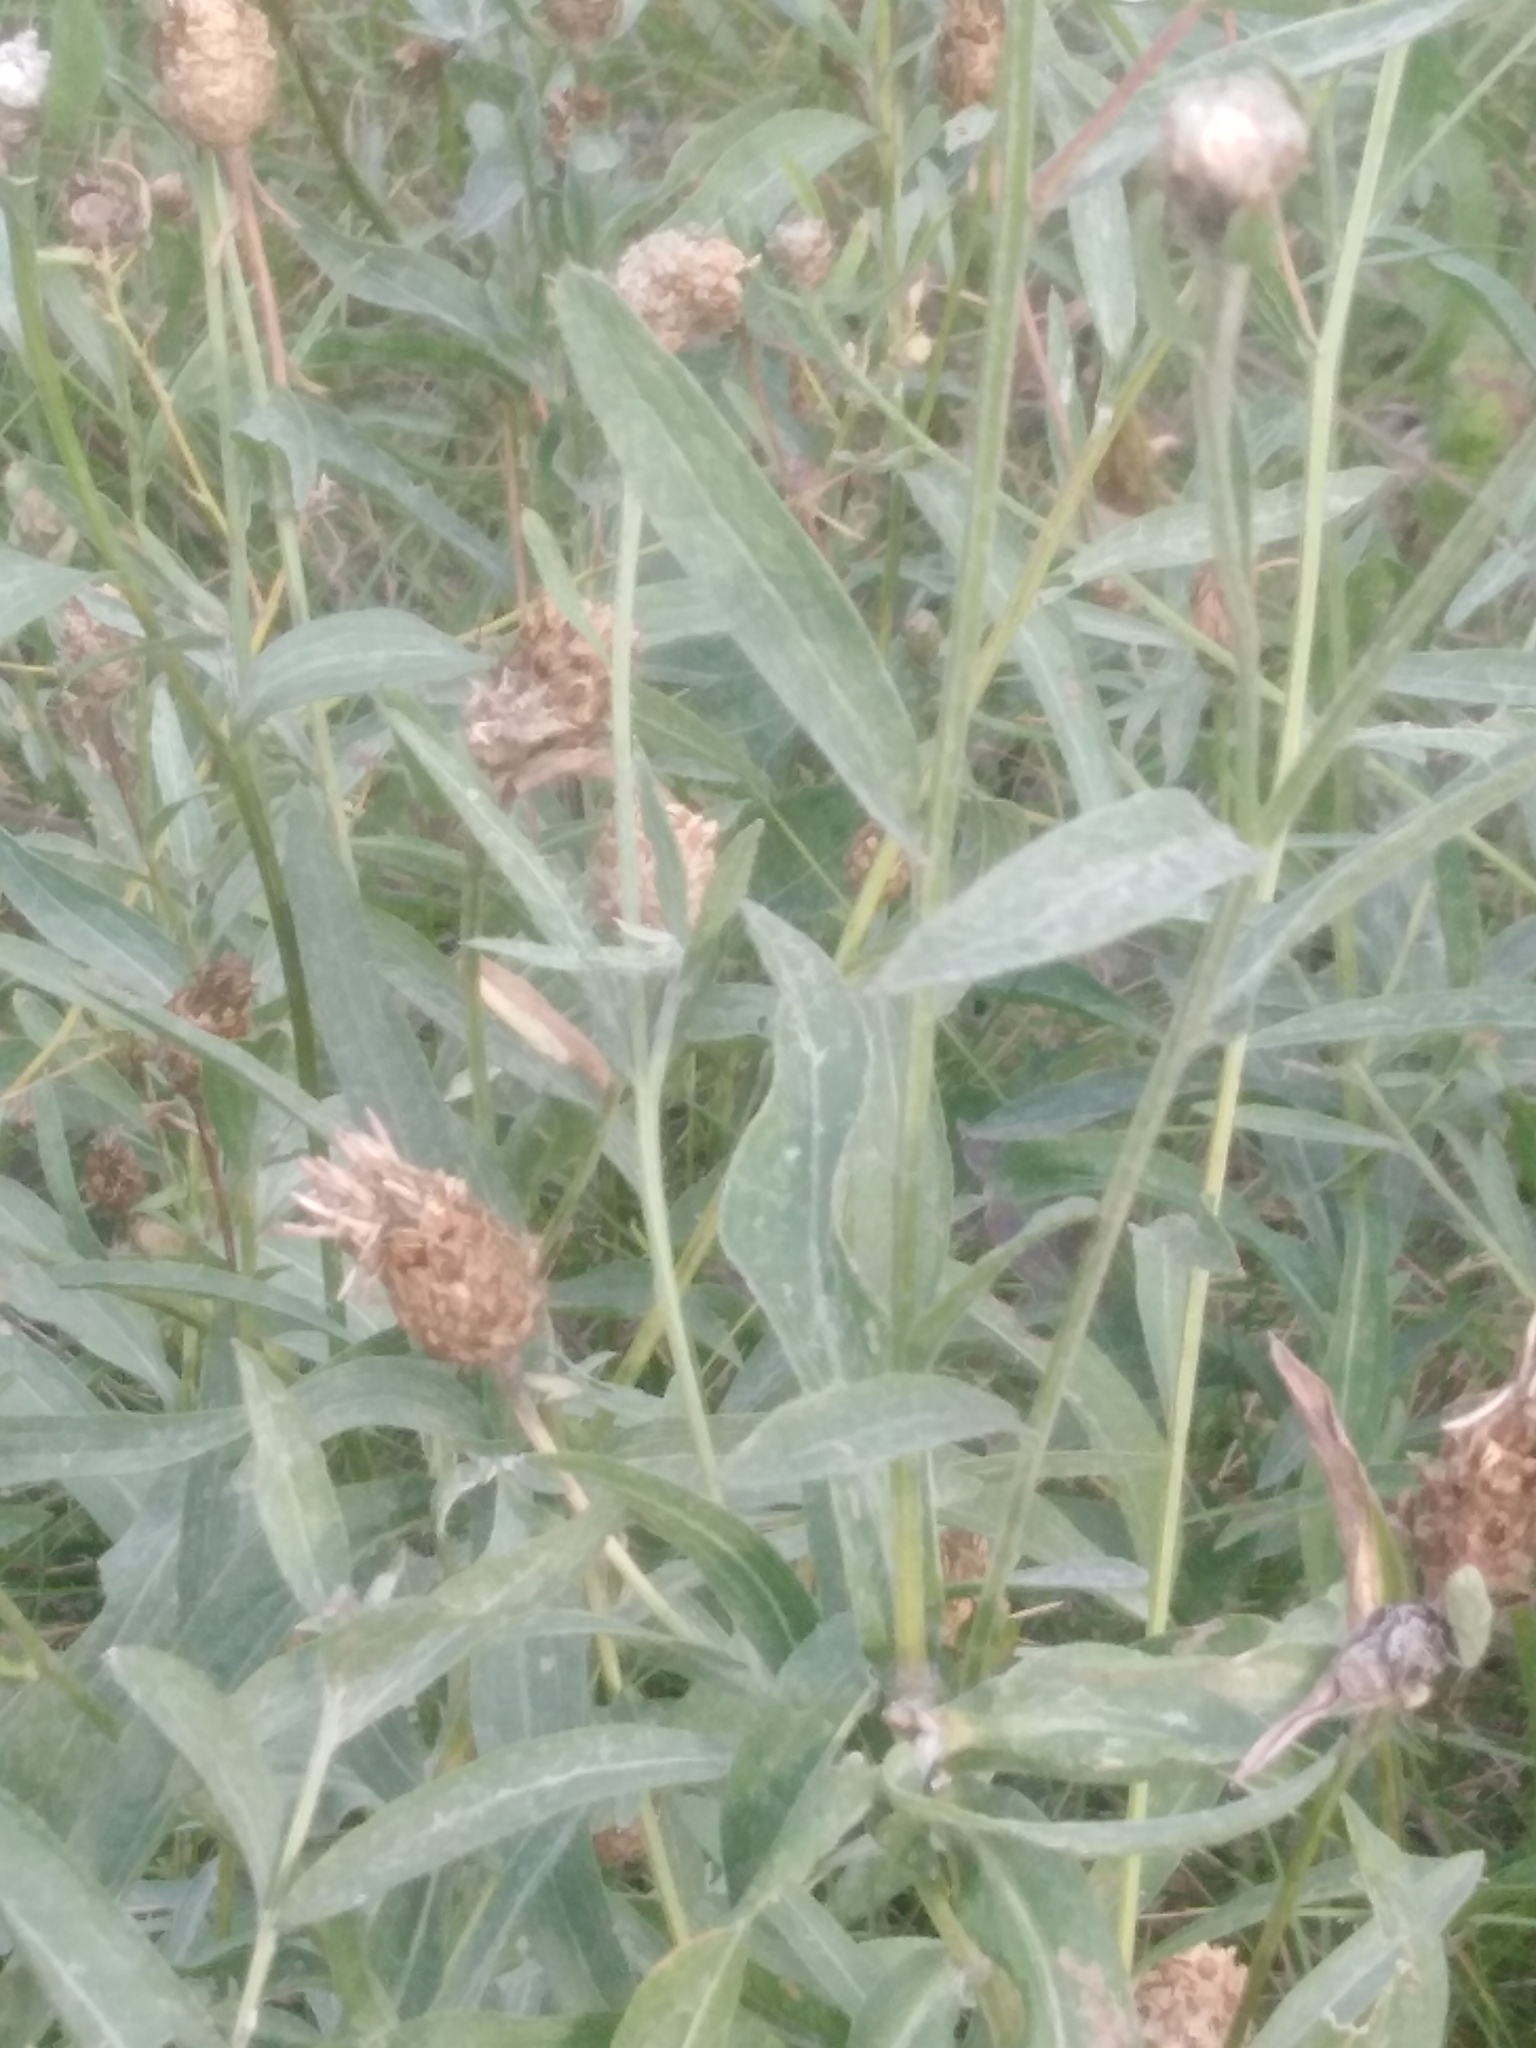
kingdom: Plantae
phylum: Tracheophyta
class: Magnoliopsida
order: Asterales
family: Asteraceae
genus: Centaurea
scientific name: Centaurea jacea
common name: Brown knapweed
